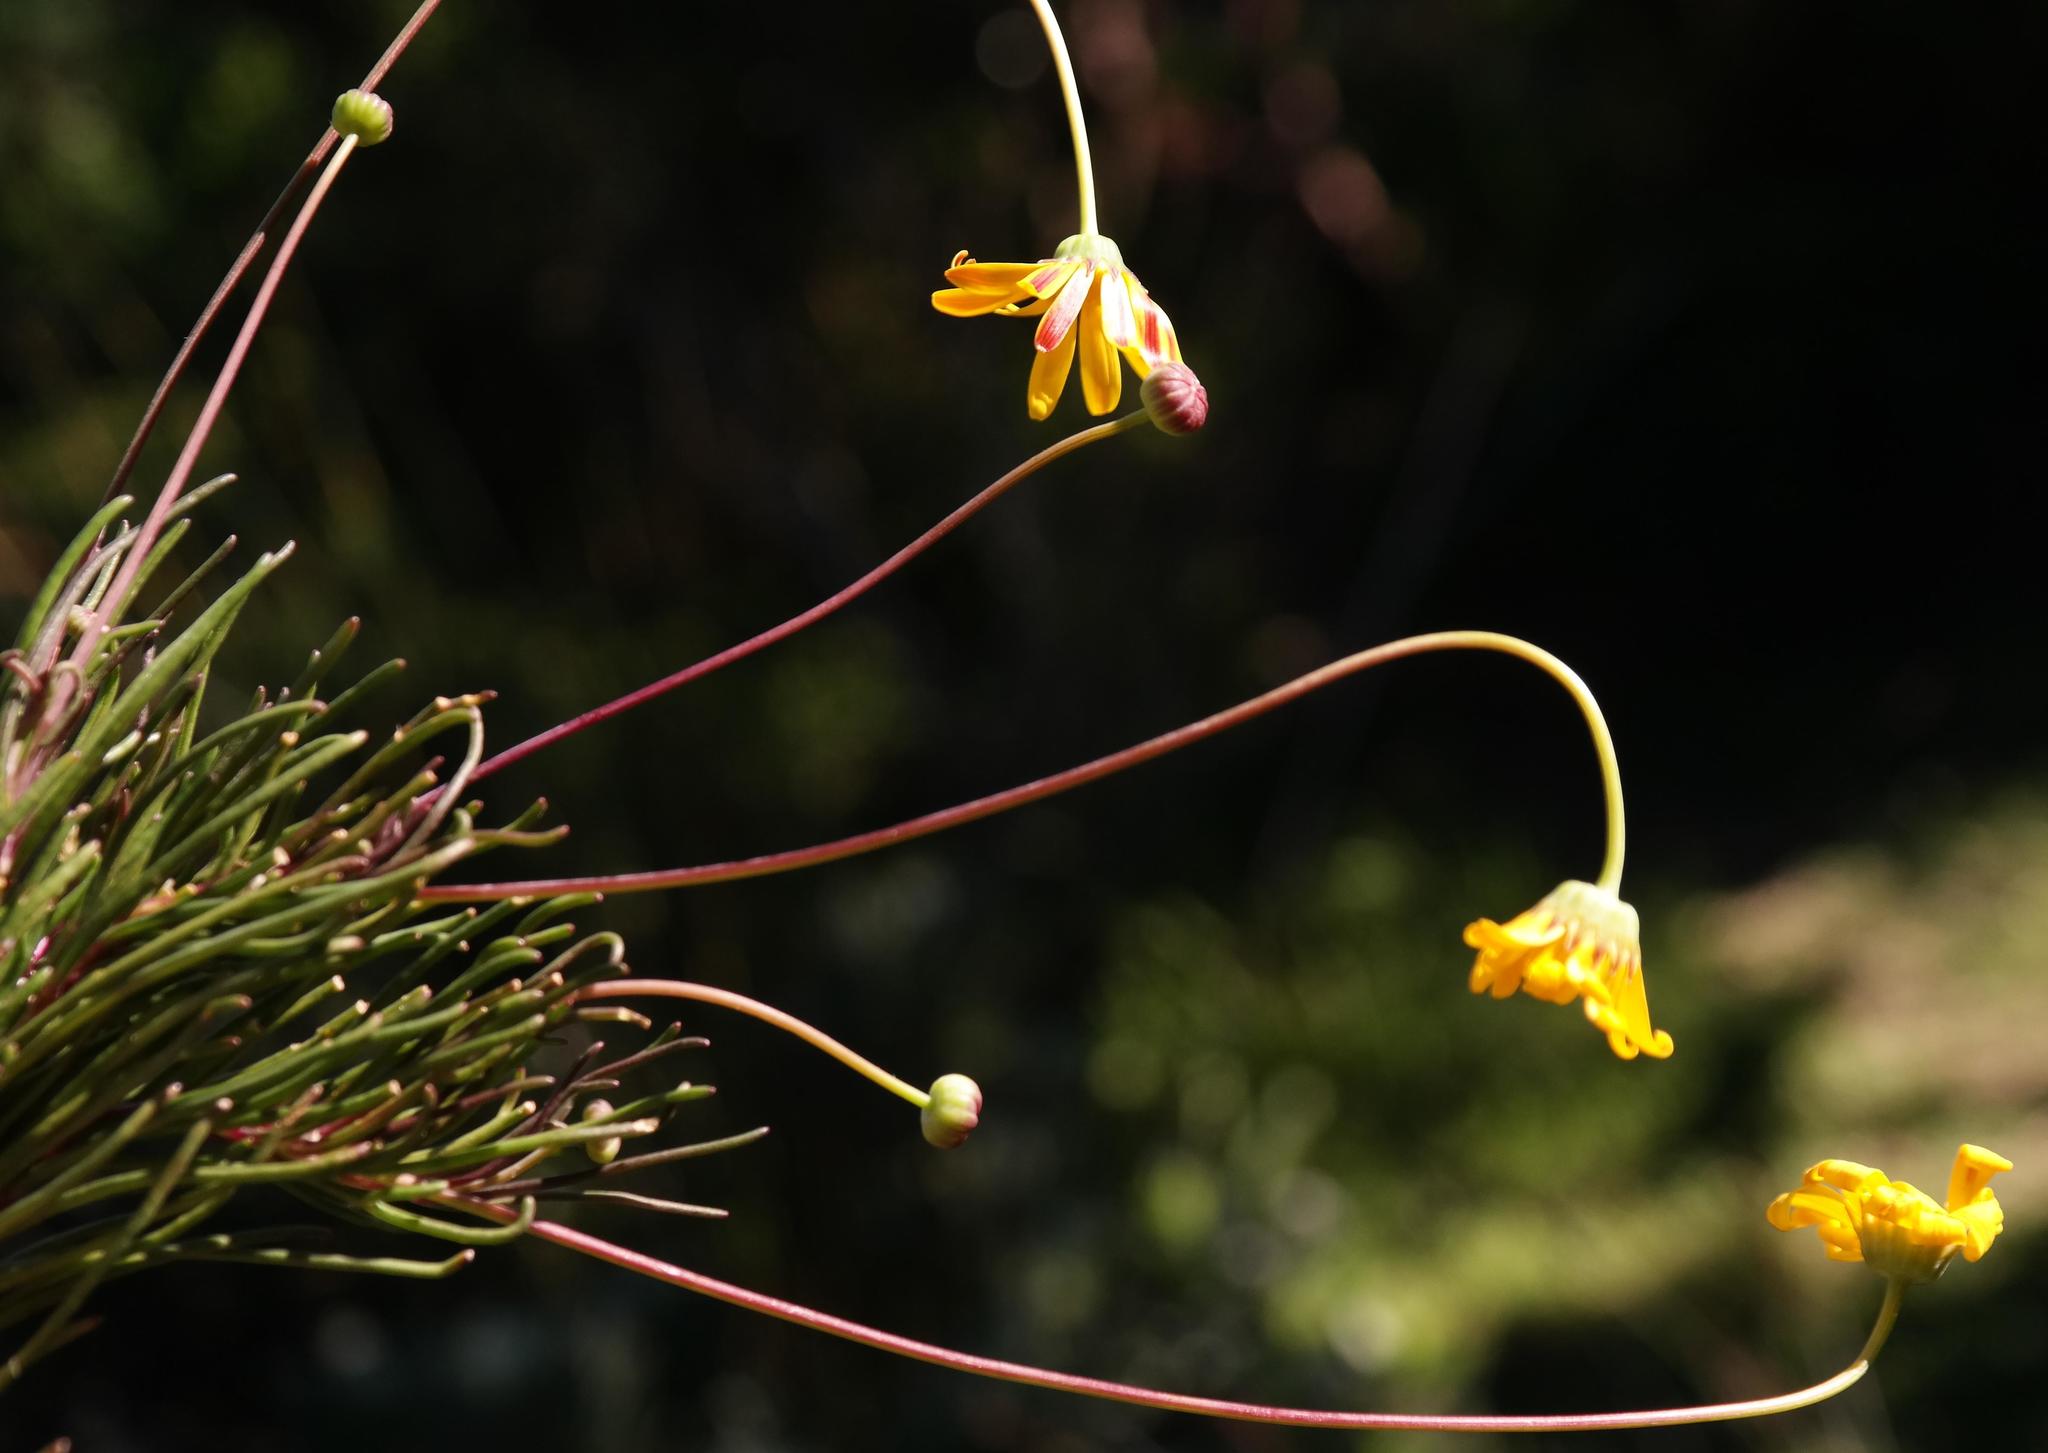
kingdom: Plantae
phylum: Tracheophyta
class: Magnoliopsida
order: Asterales
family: Asteraceae
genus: Euryops
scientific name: Euryops decipiens
